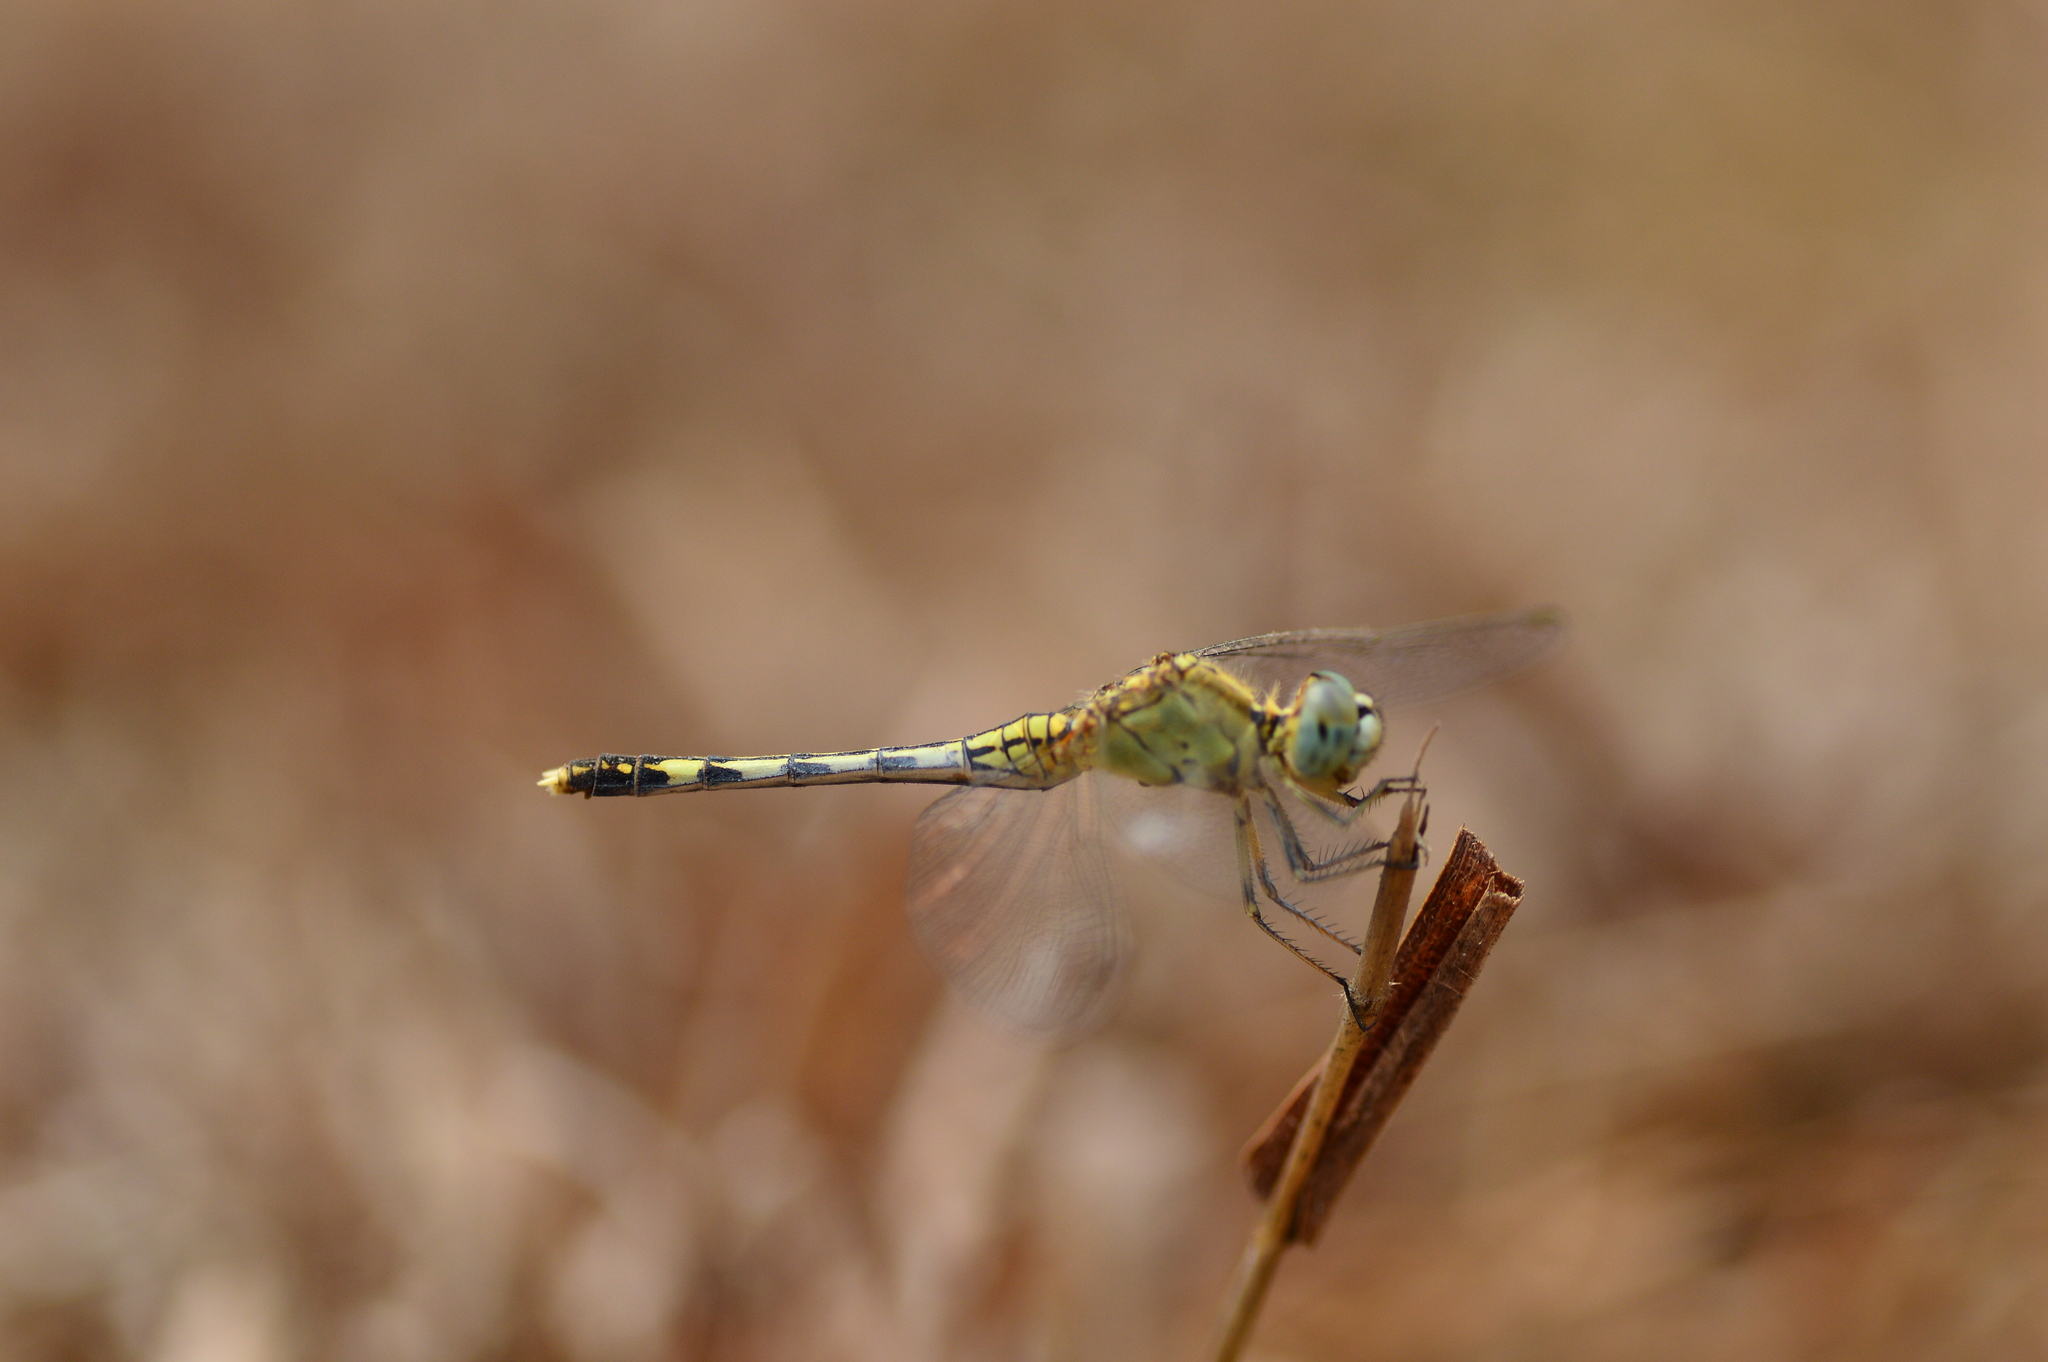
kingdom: Animalia
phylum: Arthropoda
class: Insecta
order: Odonata
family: Libellulidae
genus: Diplacodes
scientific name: Diplacodes trivialis
